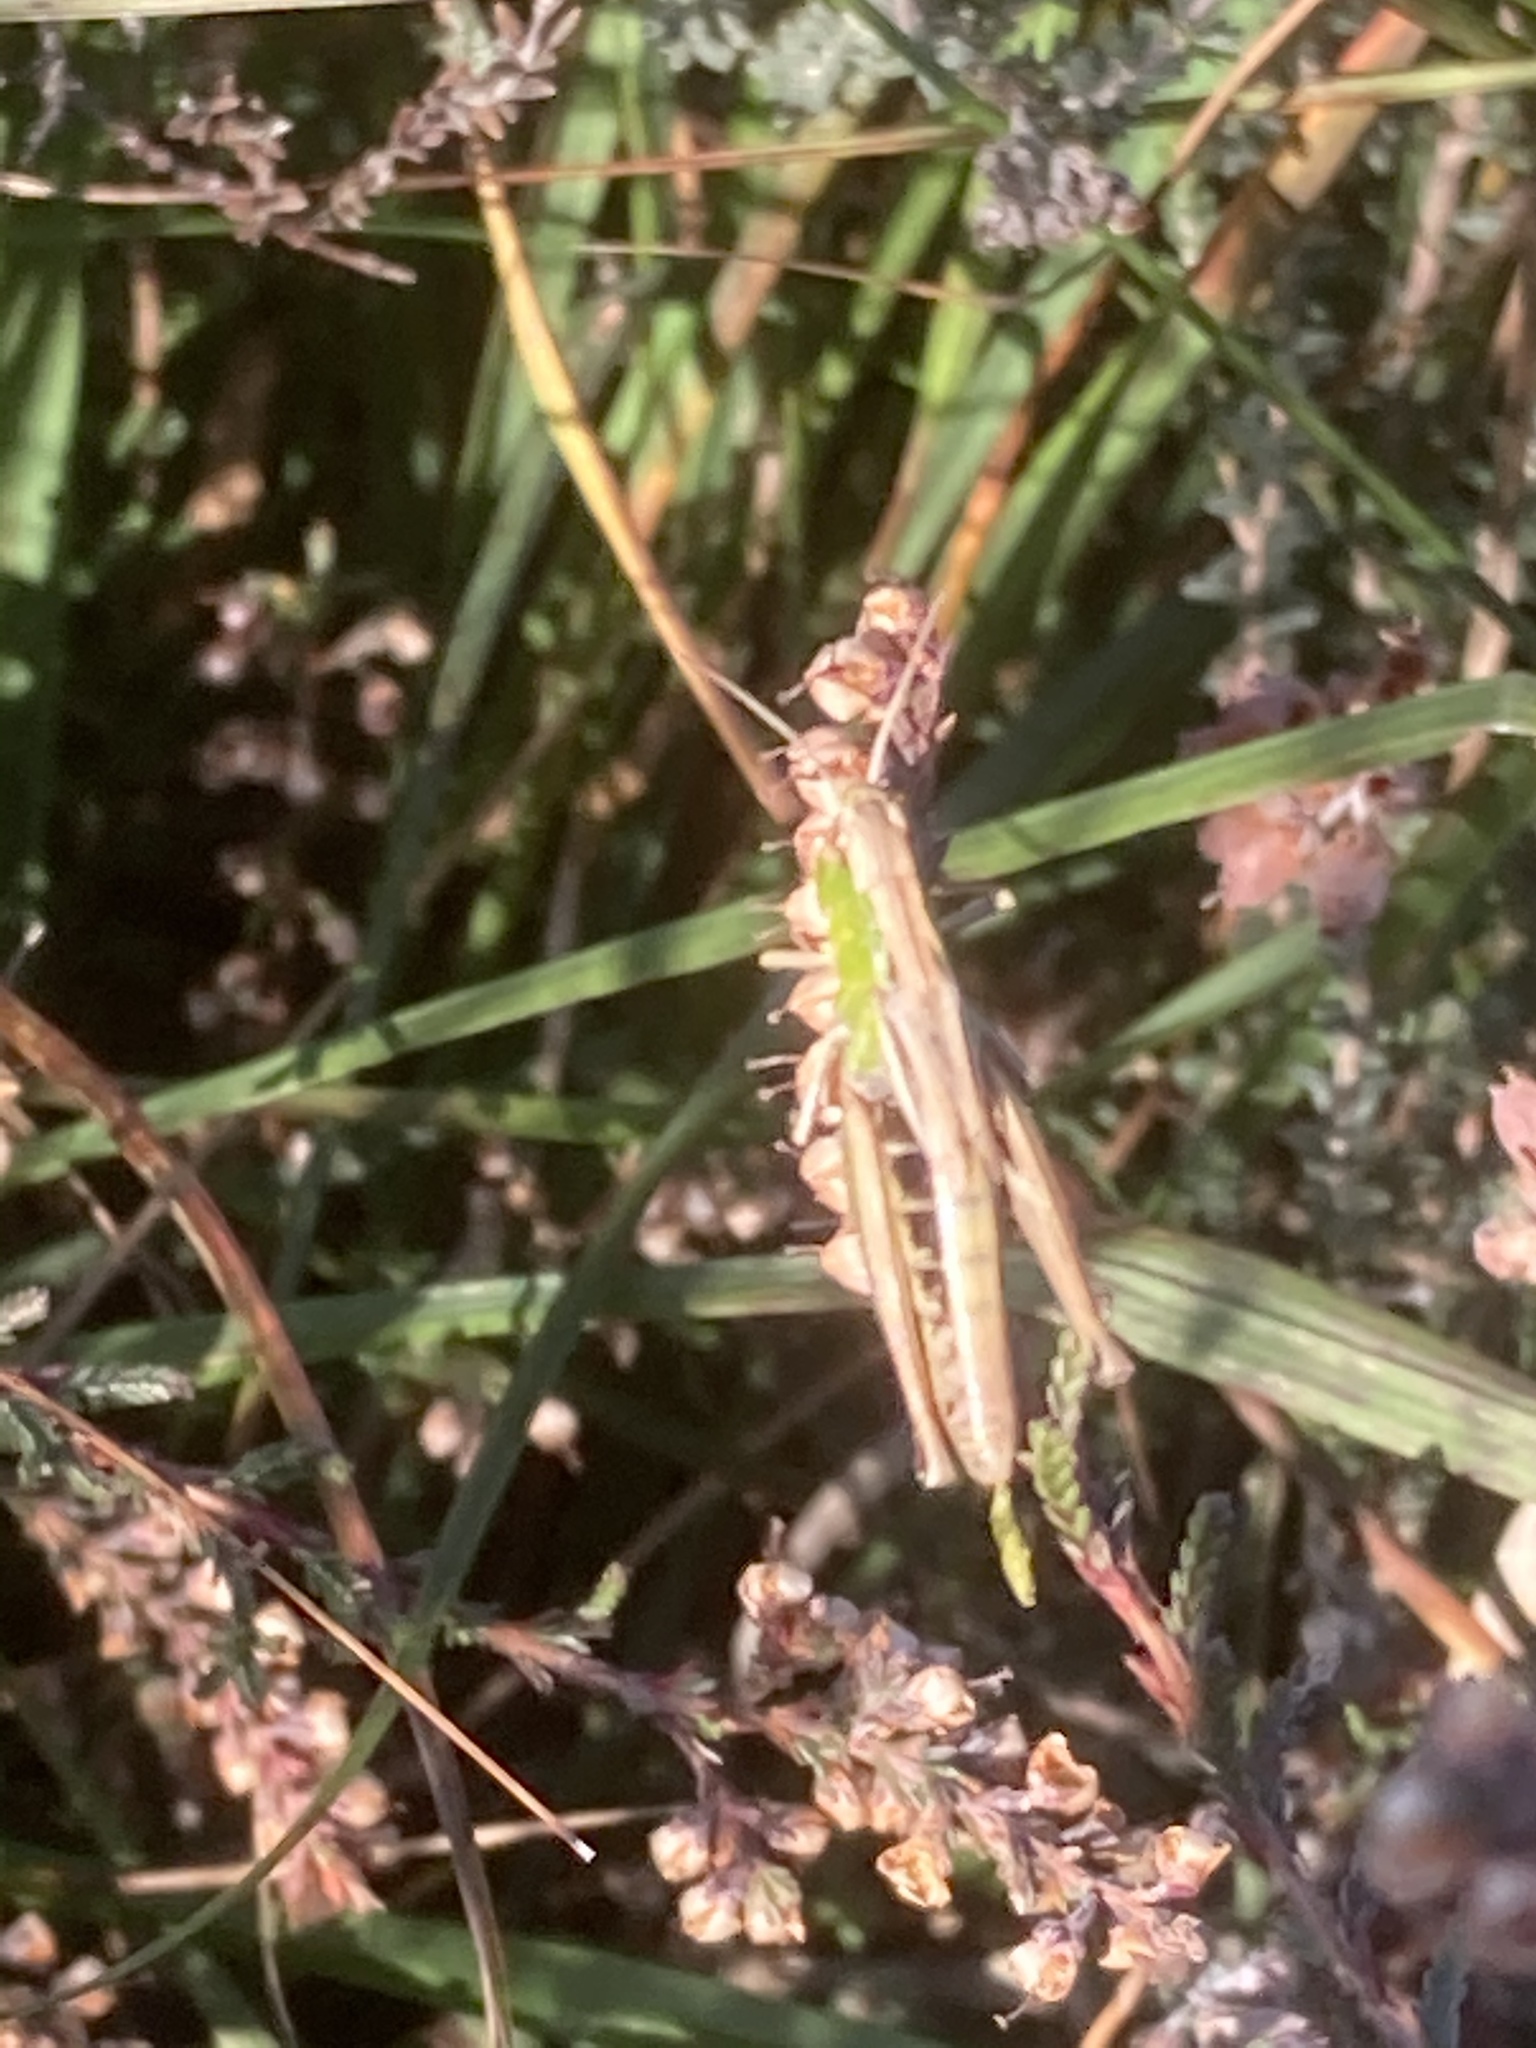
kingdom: Animalia
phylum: Arthropoda
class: Insecta
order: Orthoptera
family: Acrididae
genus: Pseudochorthippus
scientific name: Pseudochorthippus parallelus
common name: Meadow grasshopper
